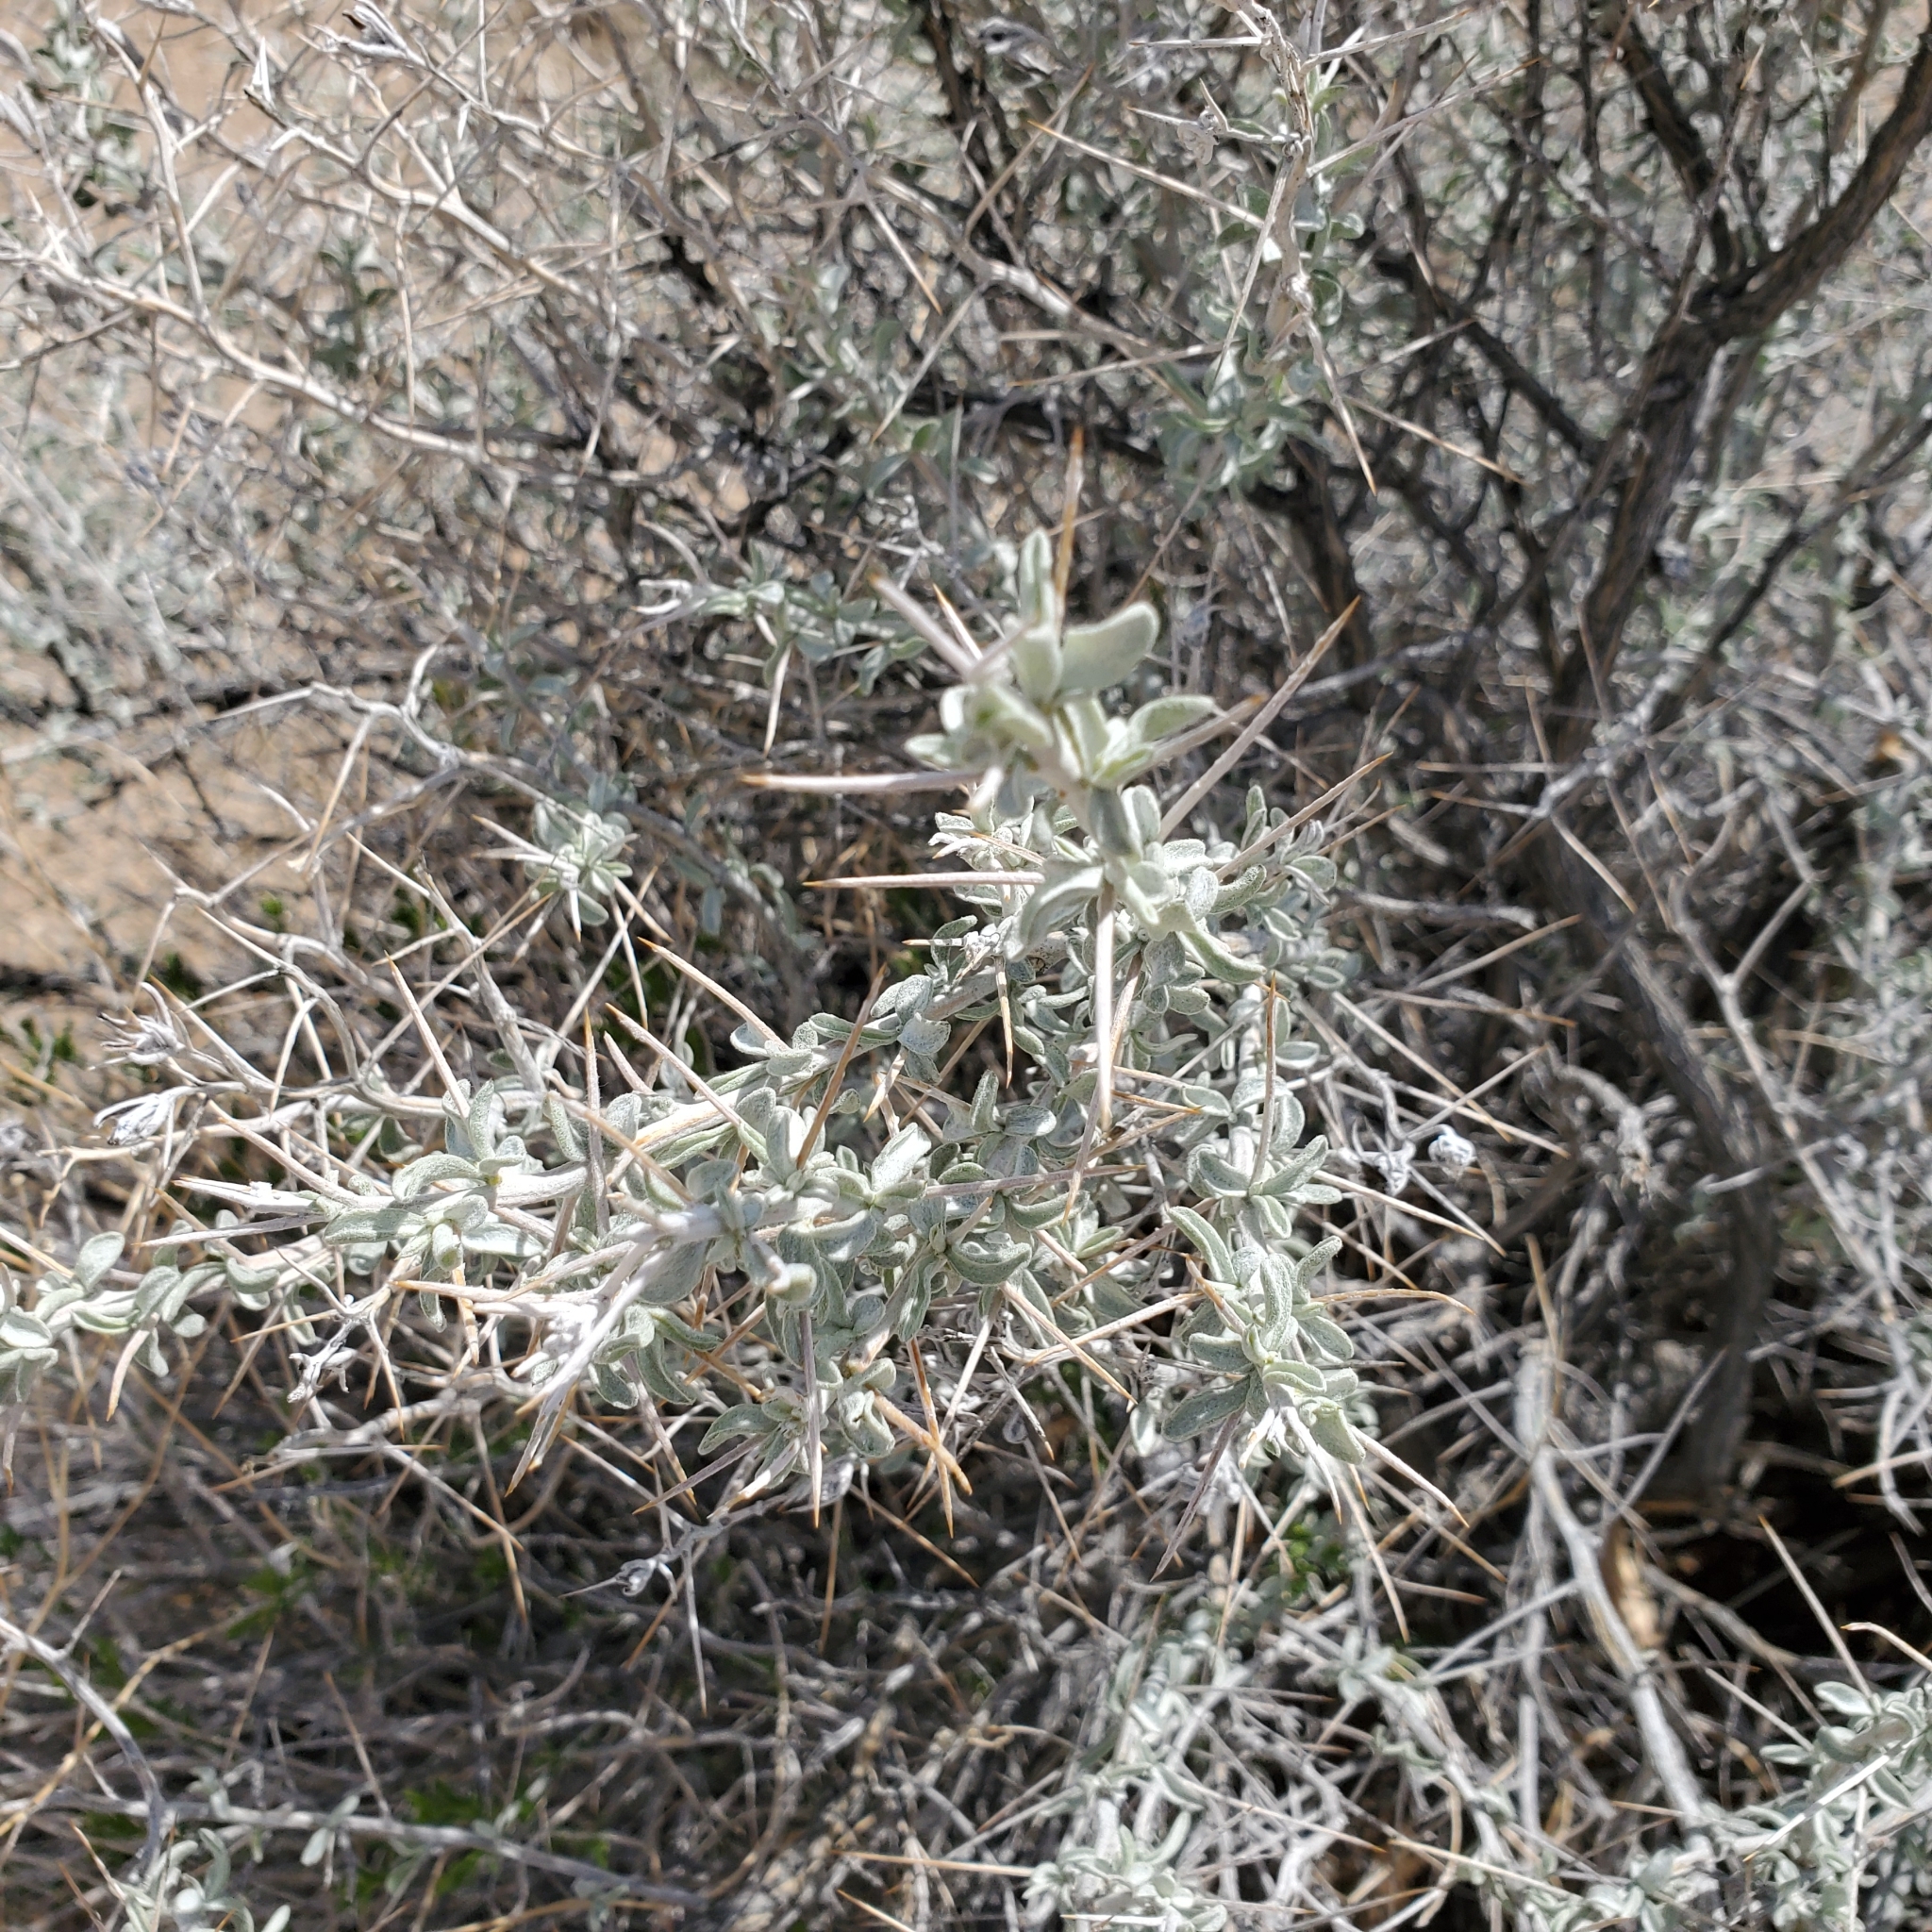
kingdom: Plantae
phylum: Tracheophyta
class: Magnoliopsida
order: Asterales
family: Asteraceae
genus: Tetradymia
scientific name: Tetradymia stenolepis
